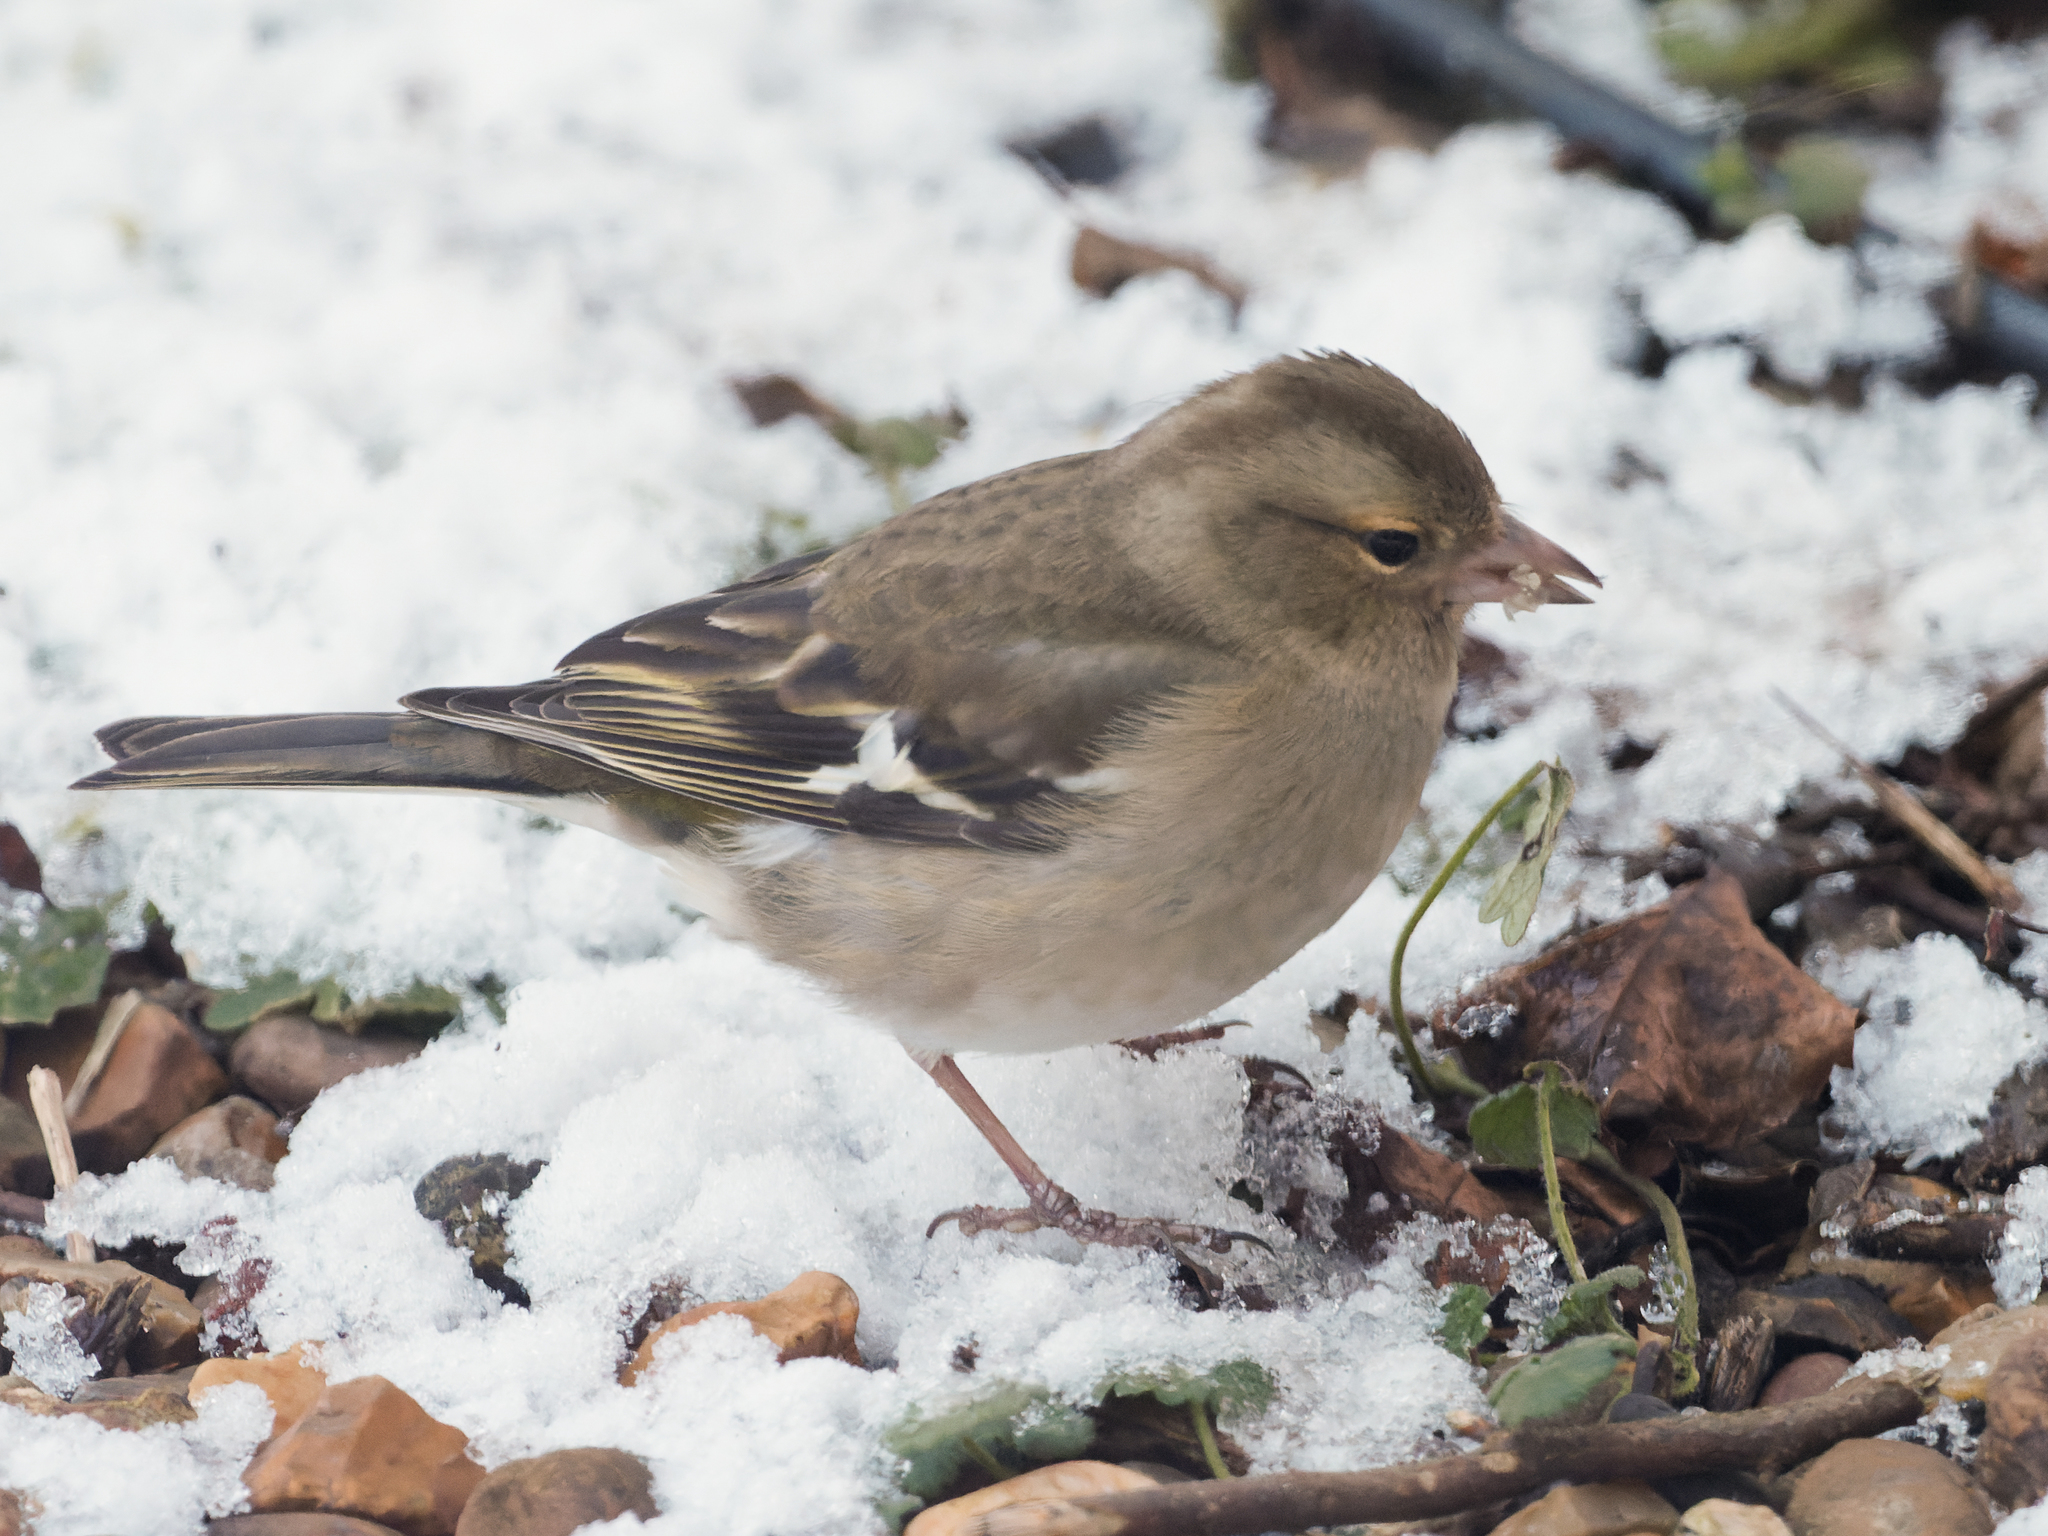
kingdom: Animalia
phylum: Chordata
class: Aves
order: Passeriformes
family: Fringillidae
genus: Fringilla
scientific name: Fringilla coelebs
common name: Common chaffinch
